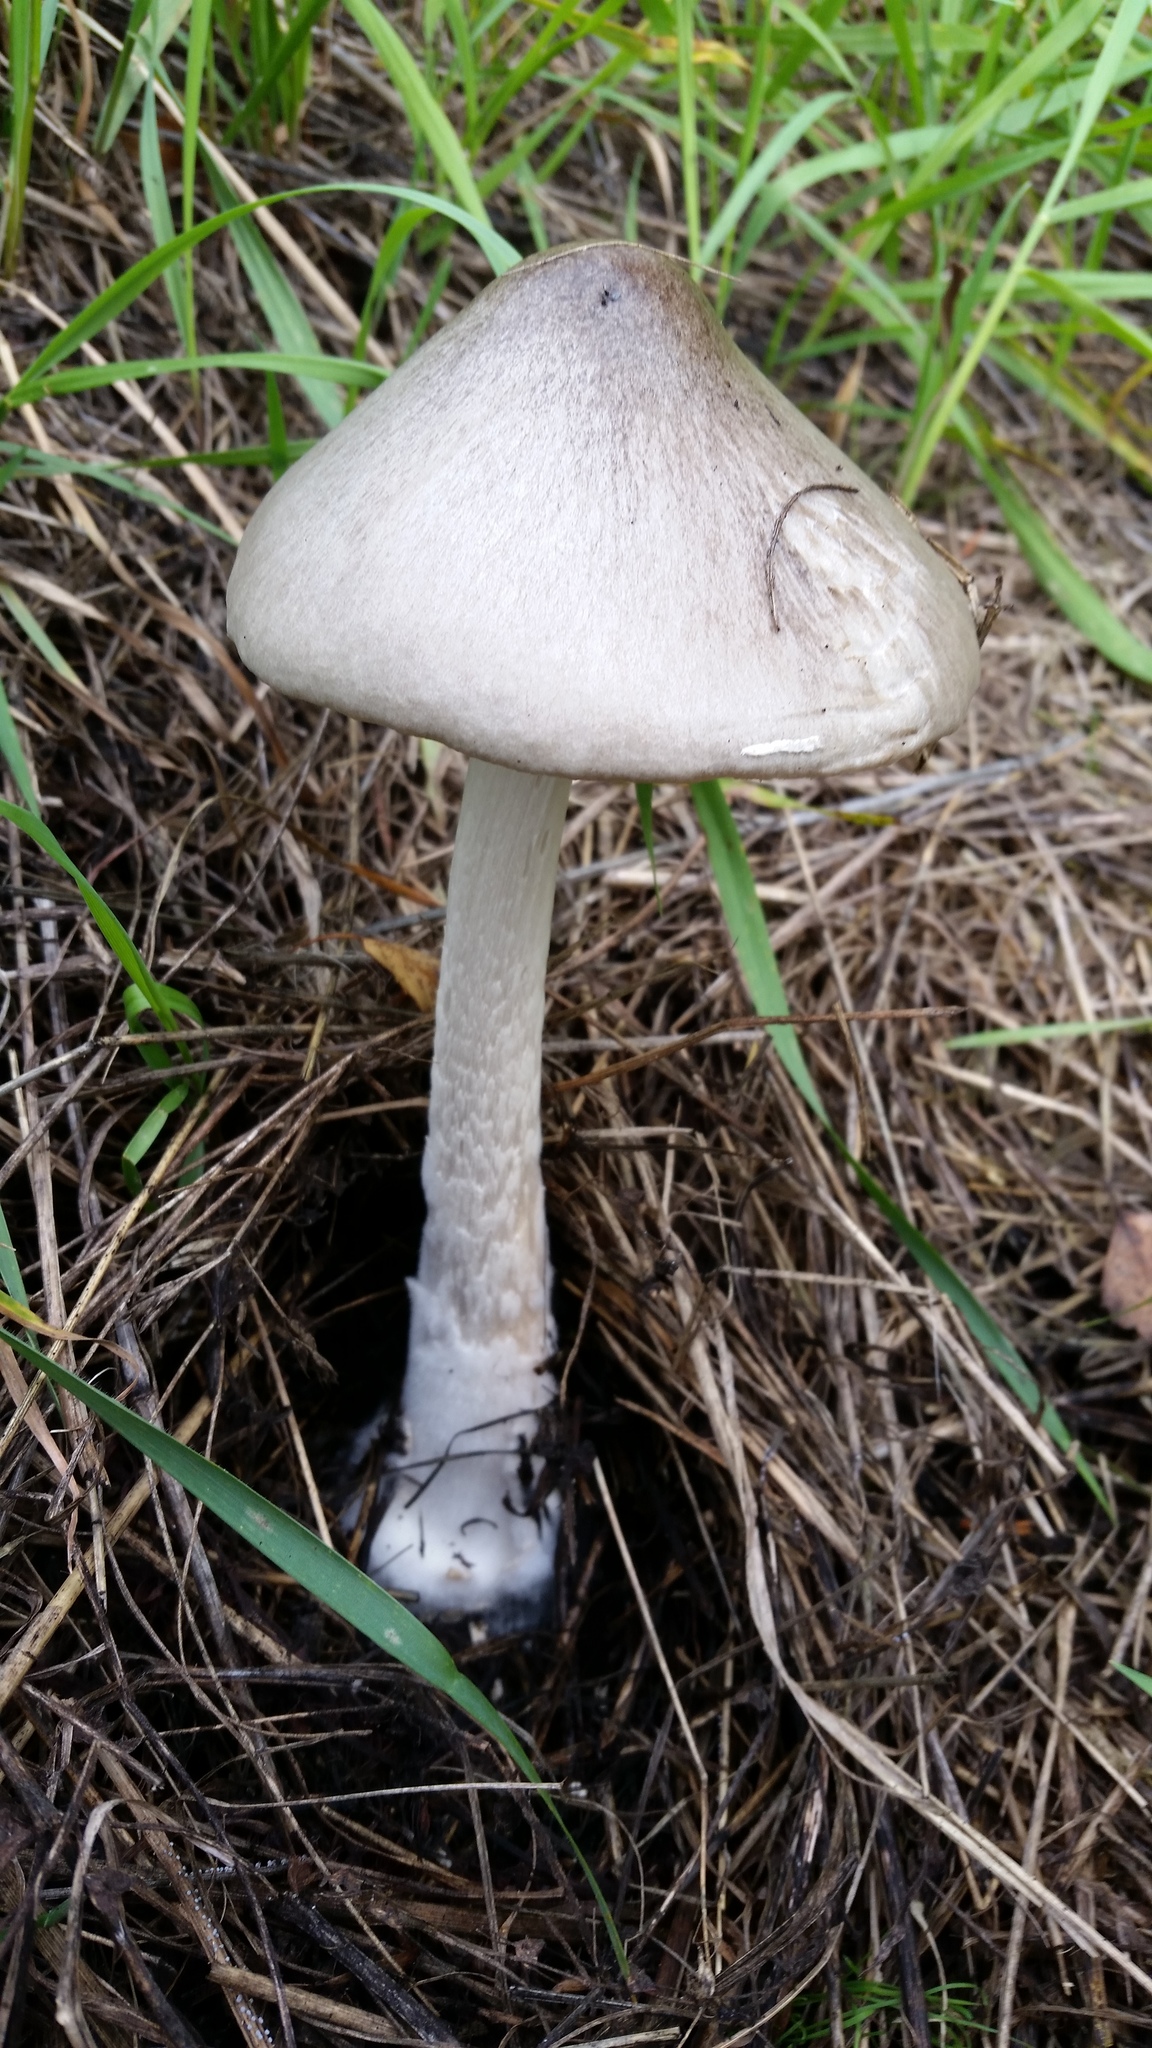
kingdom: Fungi
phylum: Basidiomycota
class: Agaricomycetes
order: Agaricales
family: Pluteaceae
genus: Volvopluteus
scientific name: Volvopluteus gloiocephalus
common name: Stubble rosegill
